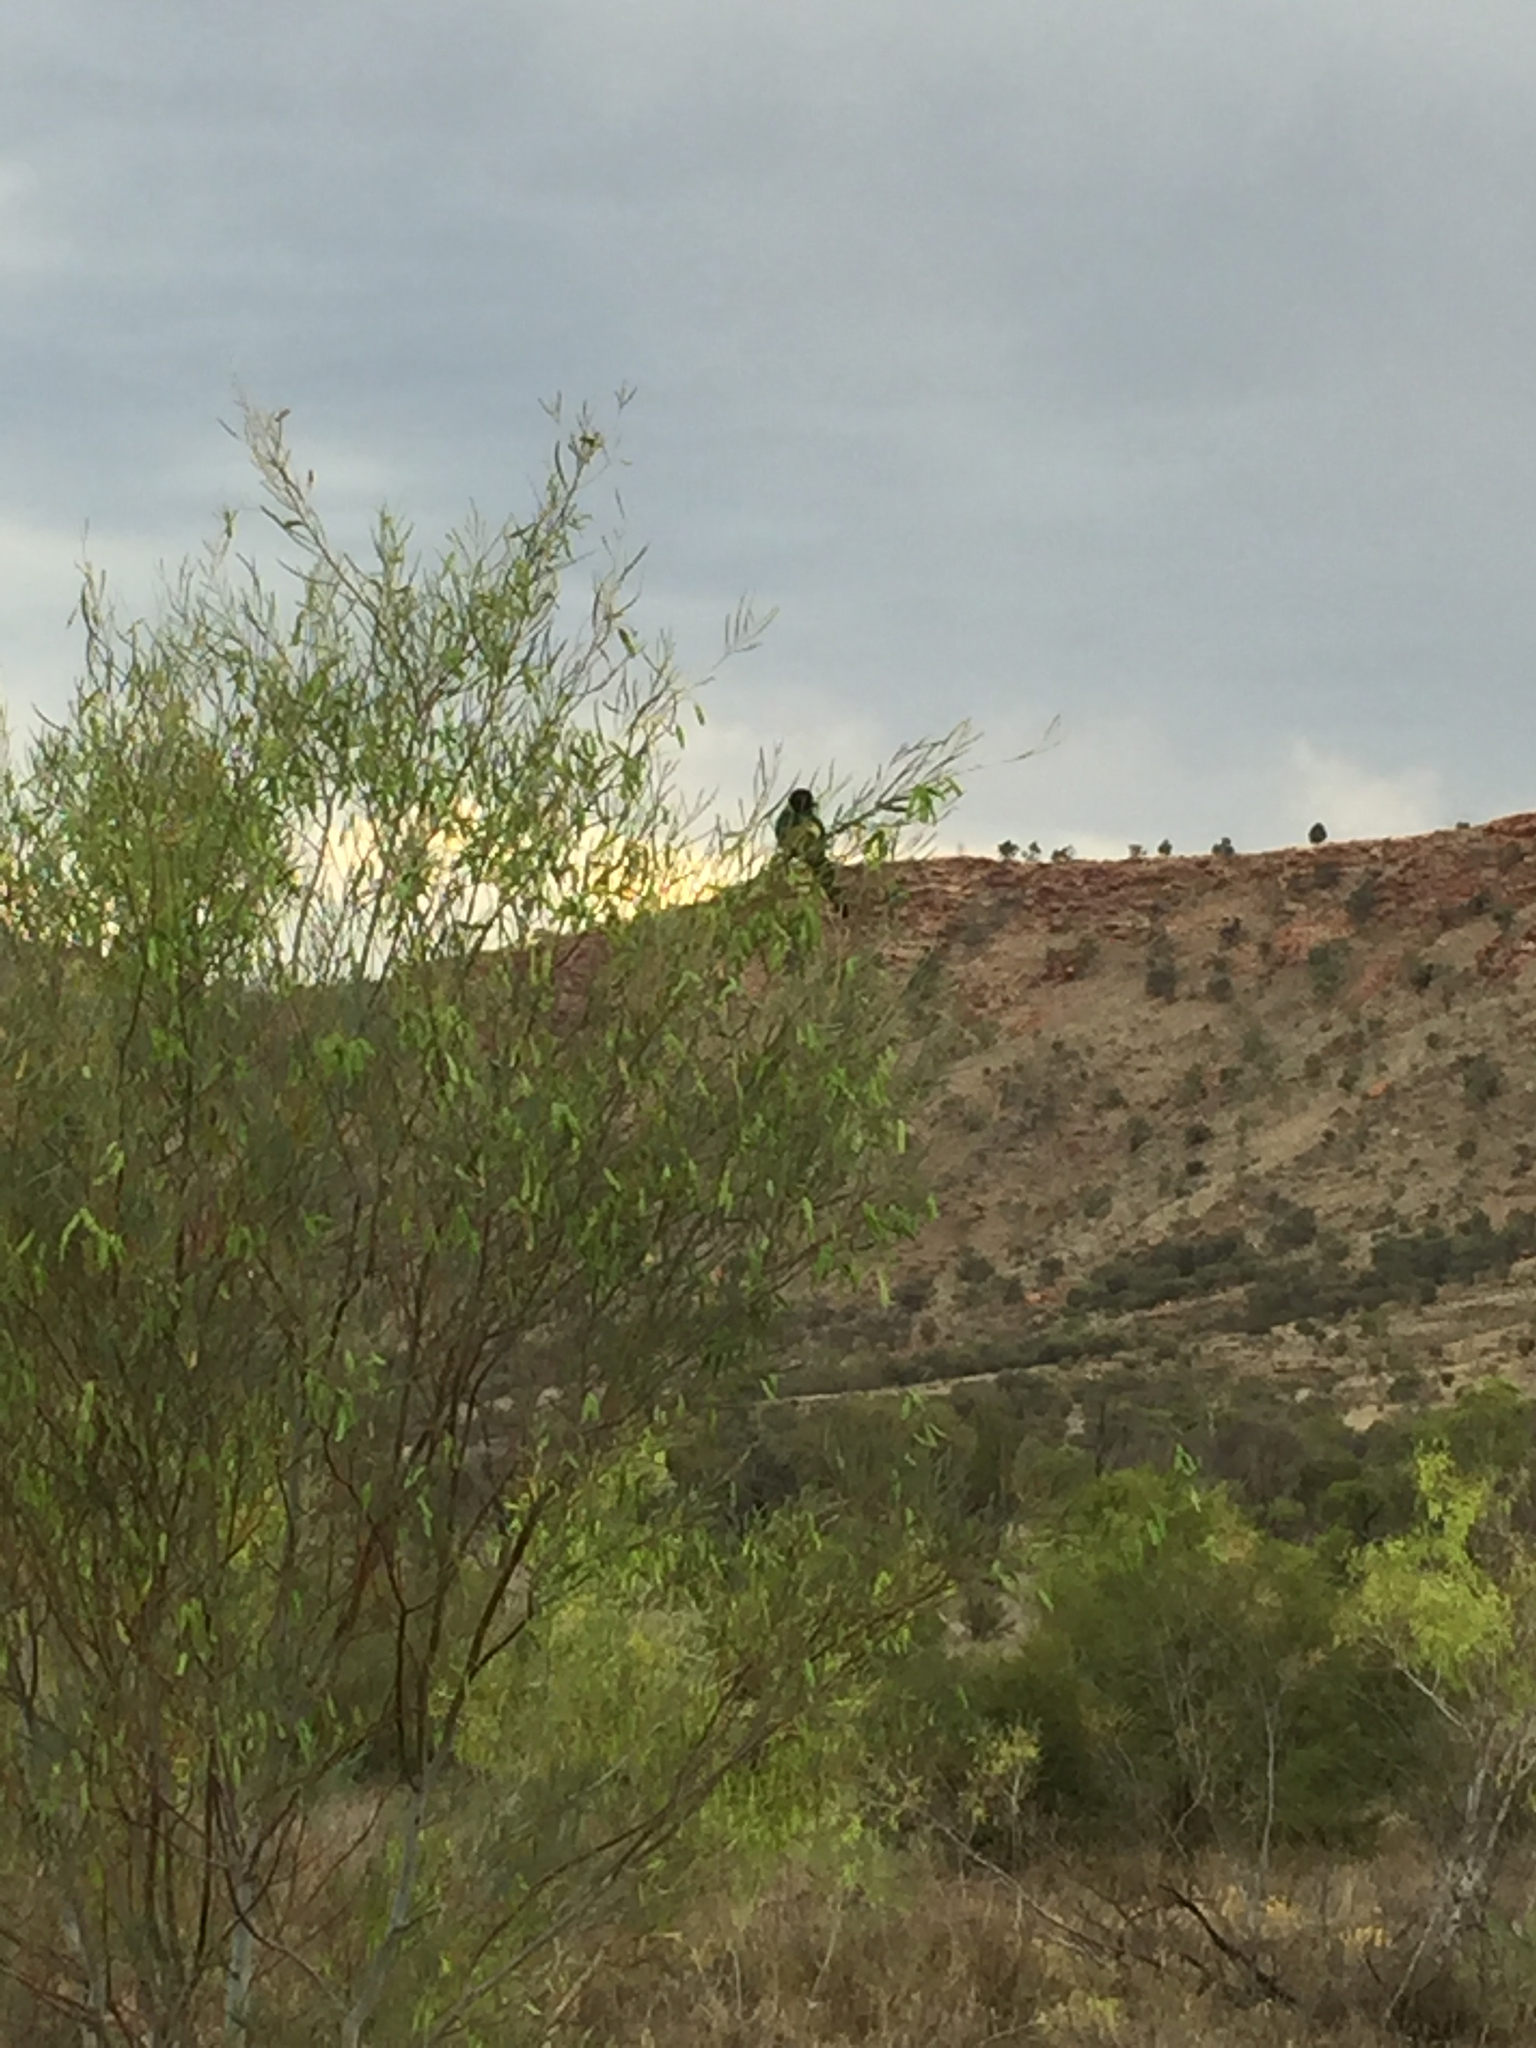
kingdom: Animalia
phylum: Chordata
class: Aves
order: Psittaciformes
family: Psittacidae
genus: Barnardius
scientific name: Barnardius zonarius
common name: Australian ringneck
